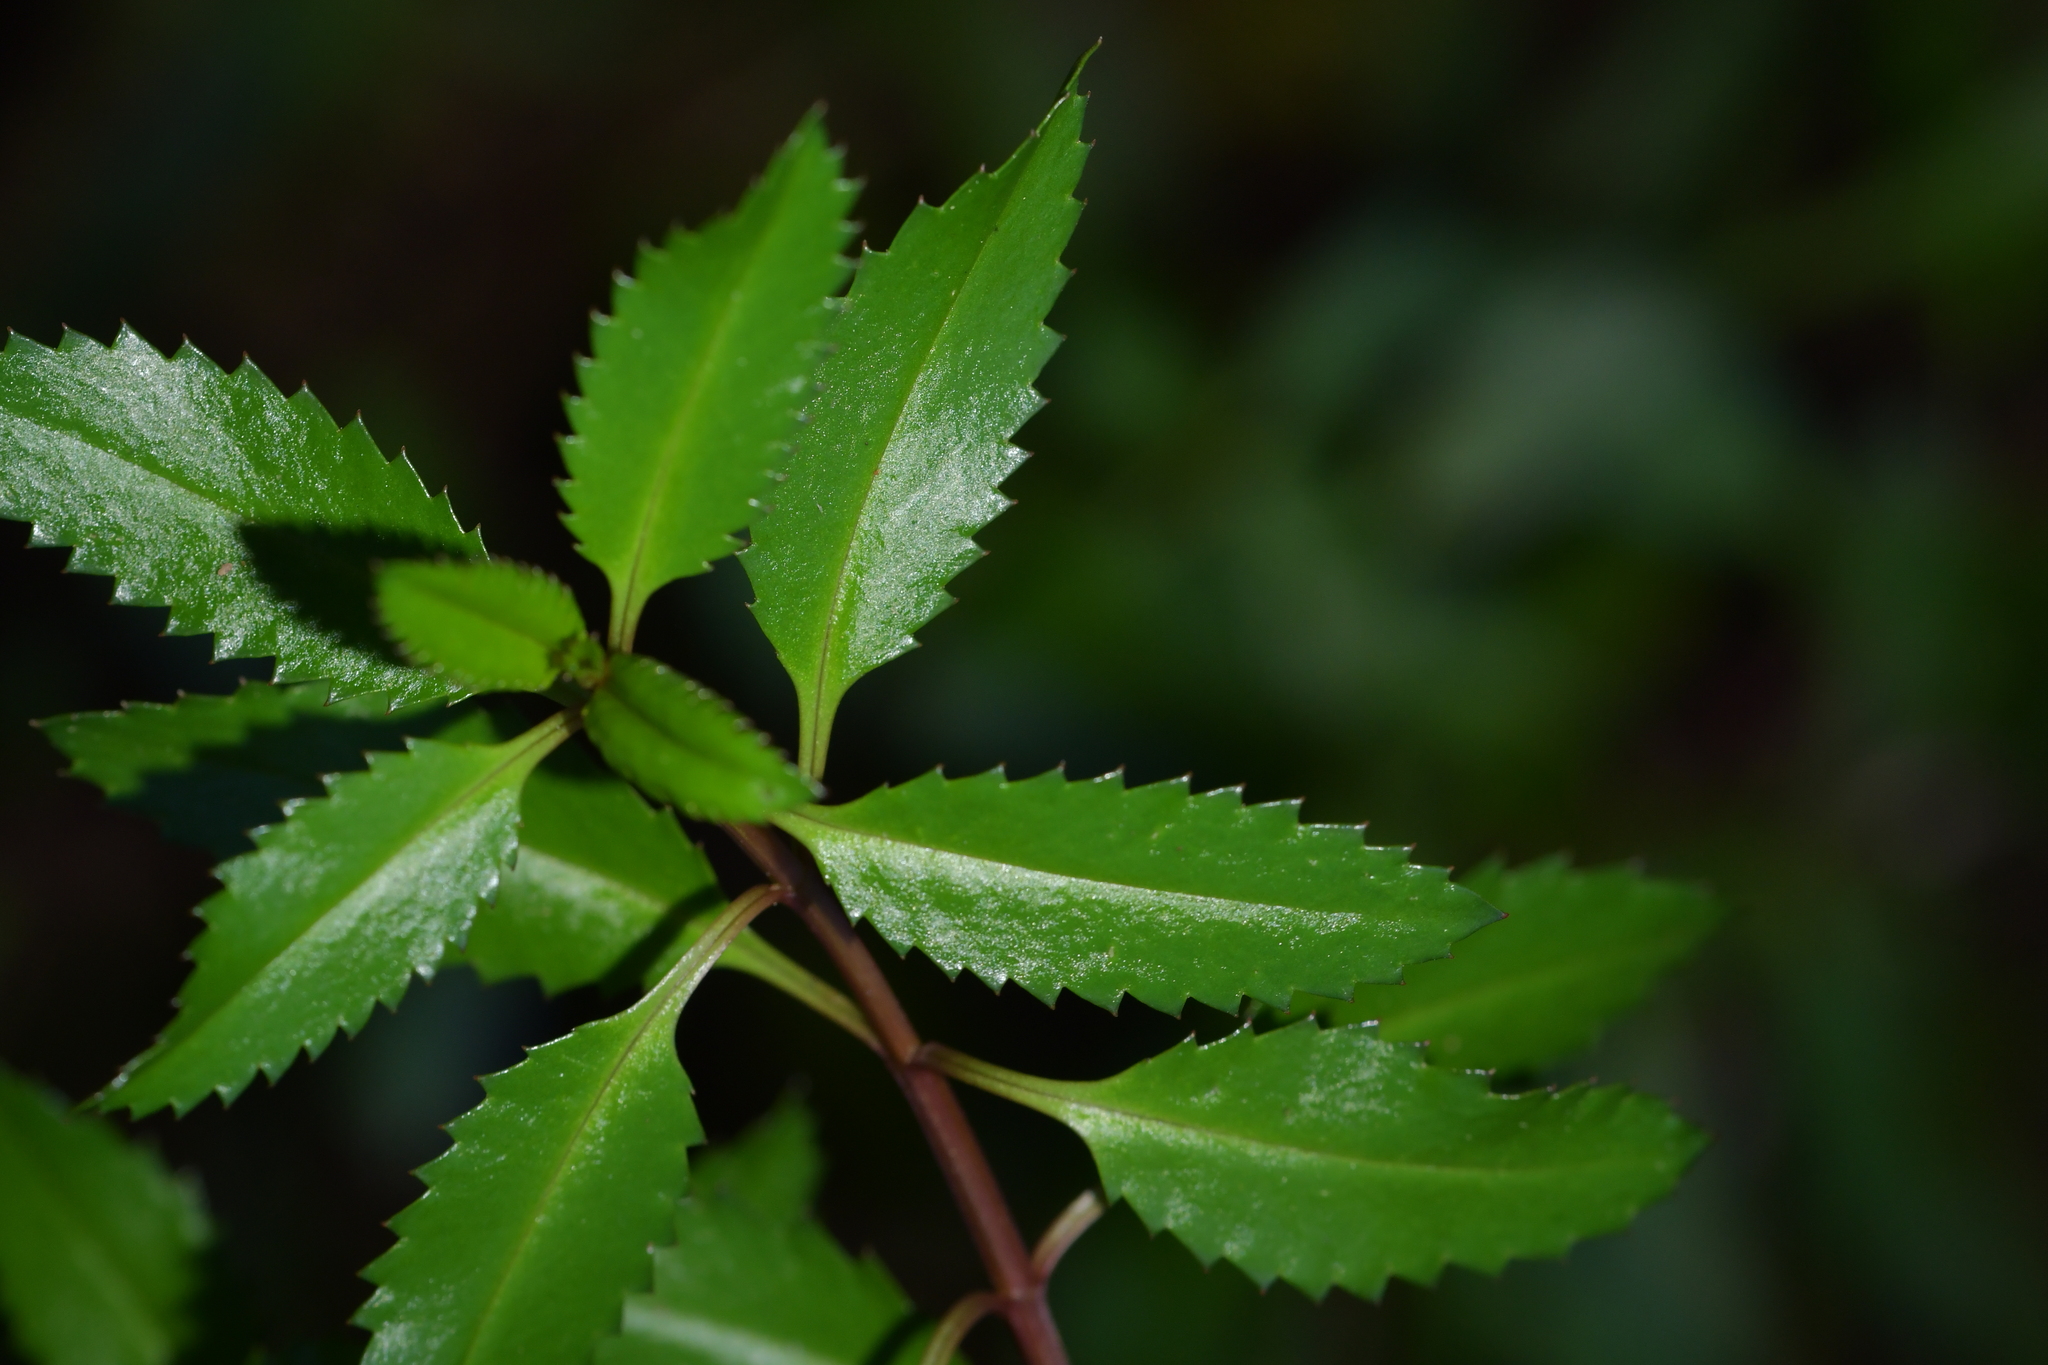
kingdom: Plantae
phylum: Tracheophyta
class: Magnoliopsida
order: Saxifragales
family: Haloragaceae
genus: Haloragis
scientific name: Haloragis erecta
